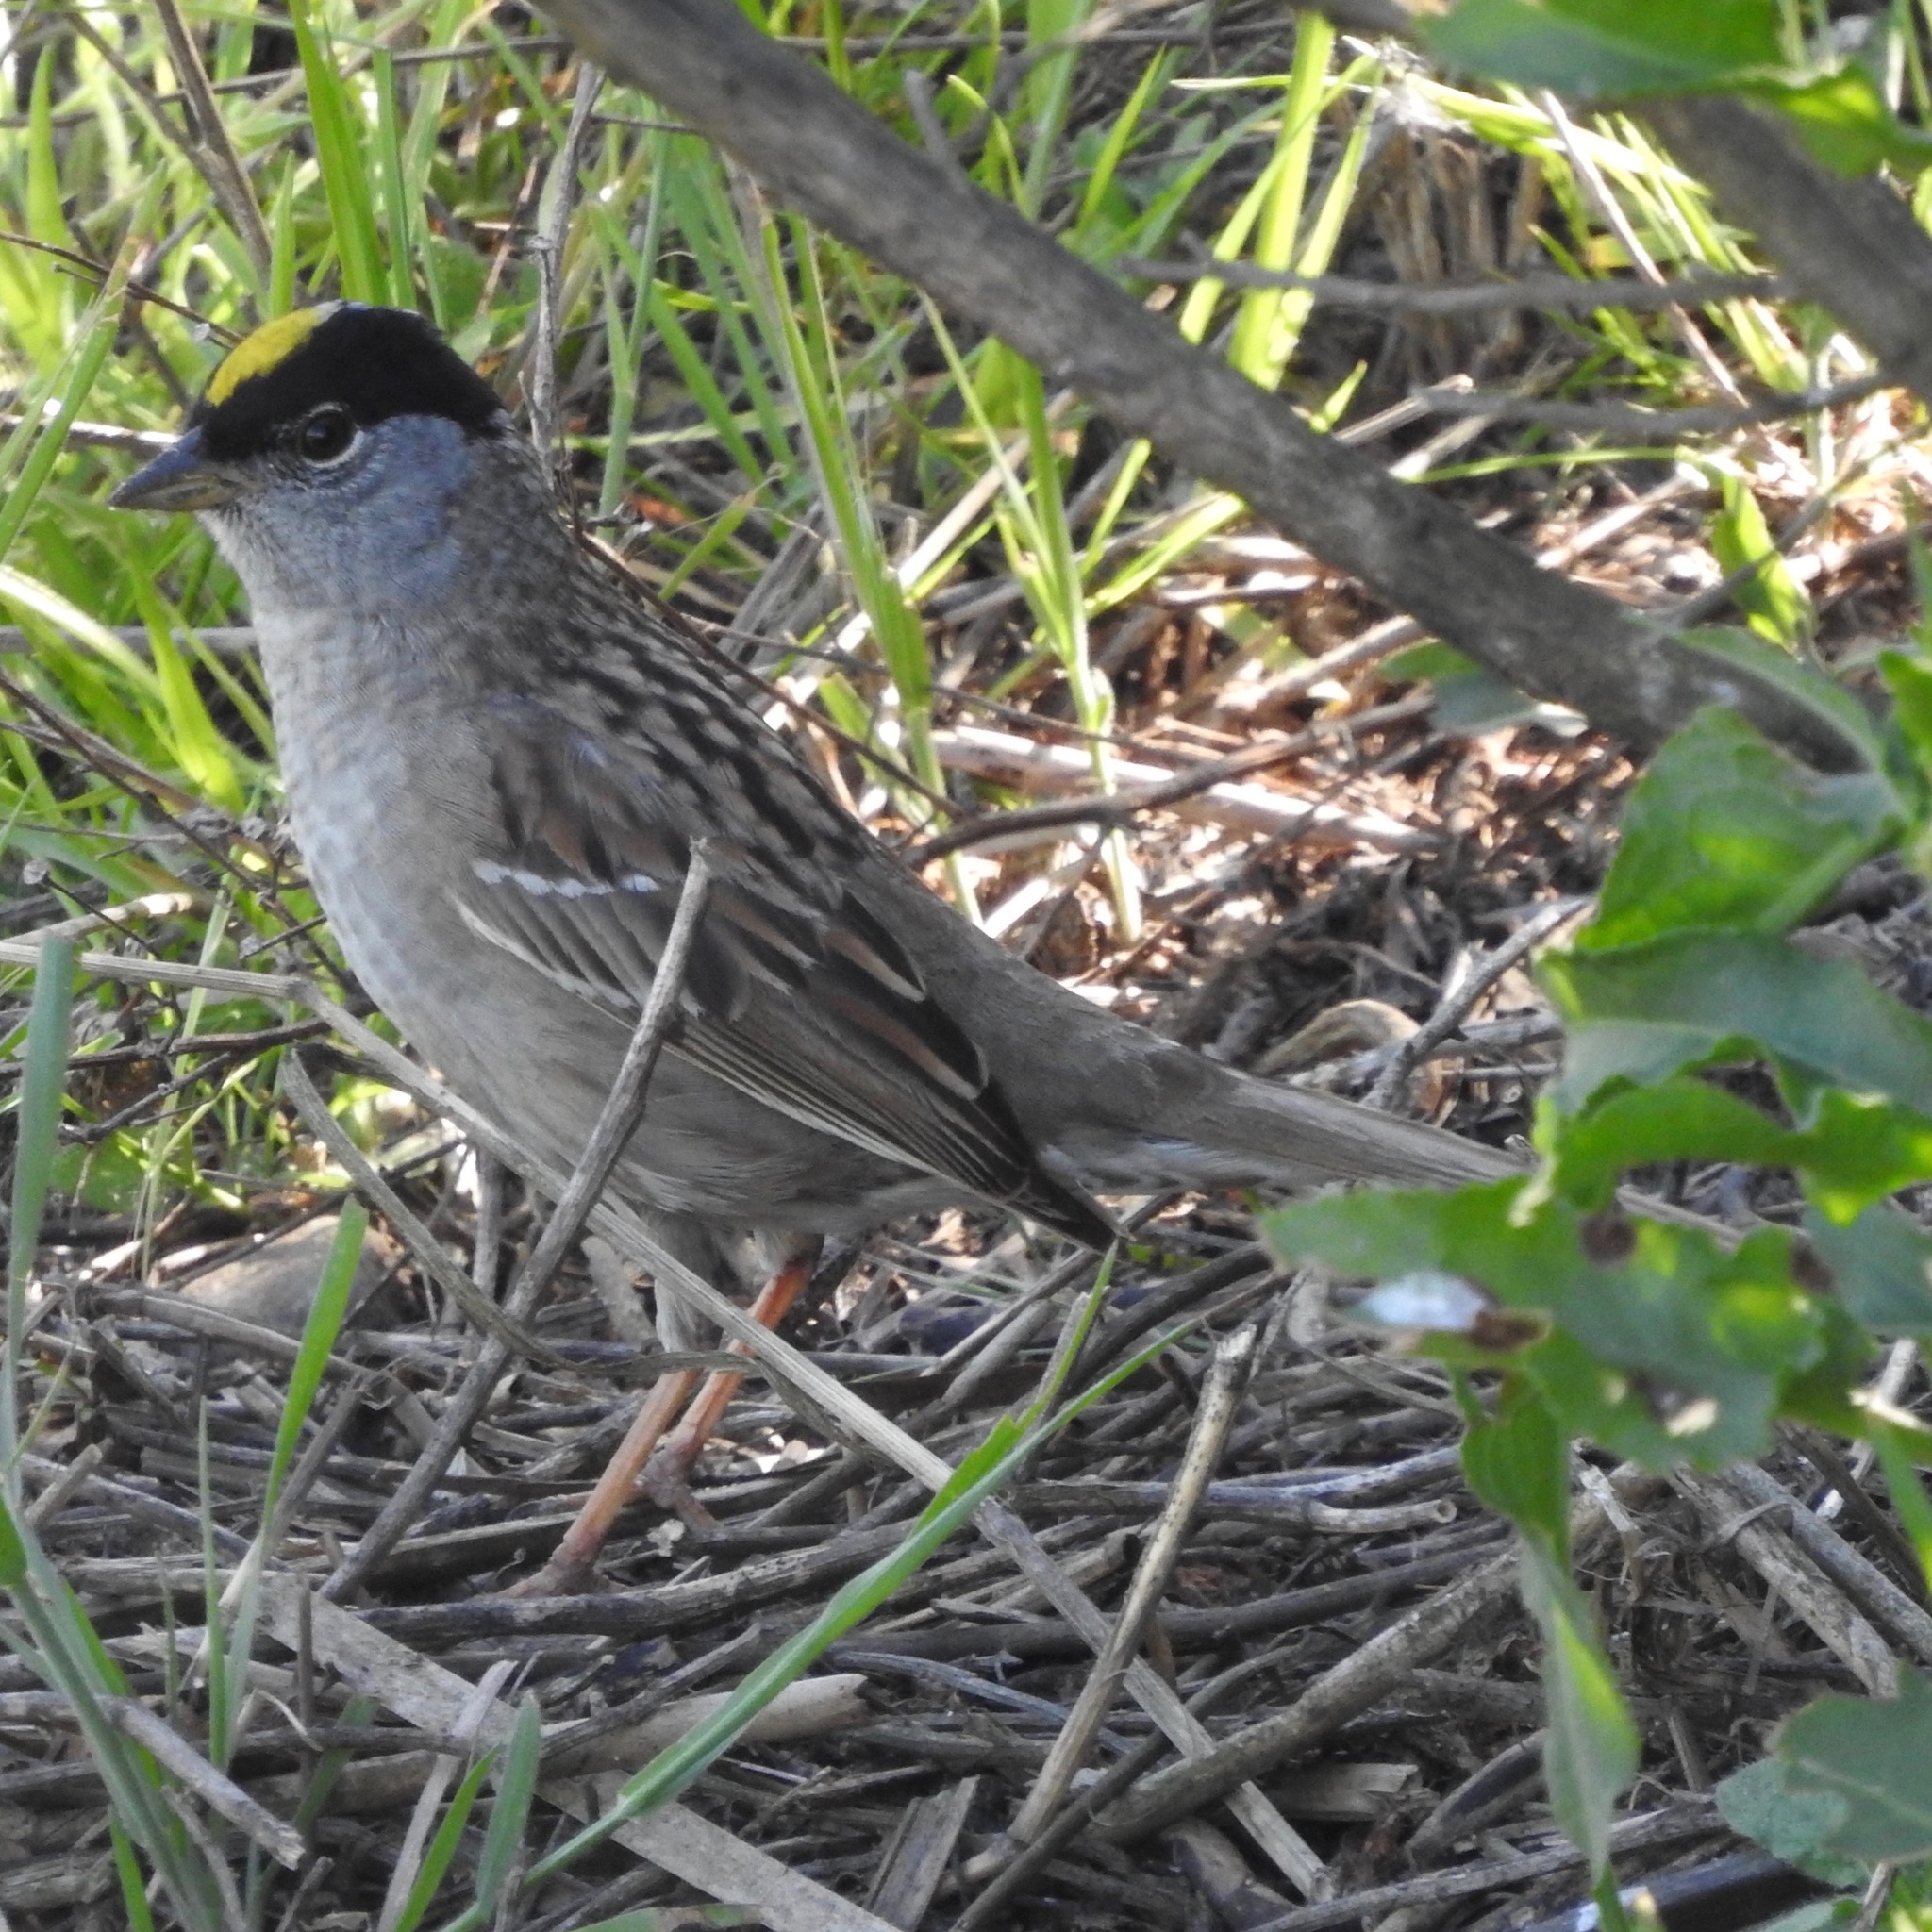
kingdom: Animalia
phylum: Chordata
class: Aves
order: Passeriformes
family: Passerellidae
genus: Zonotrichia
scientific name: Zonotrichia atricapilla
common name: Golden-crowned sparrow
